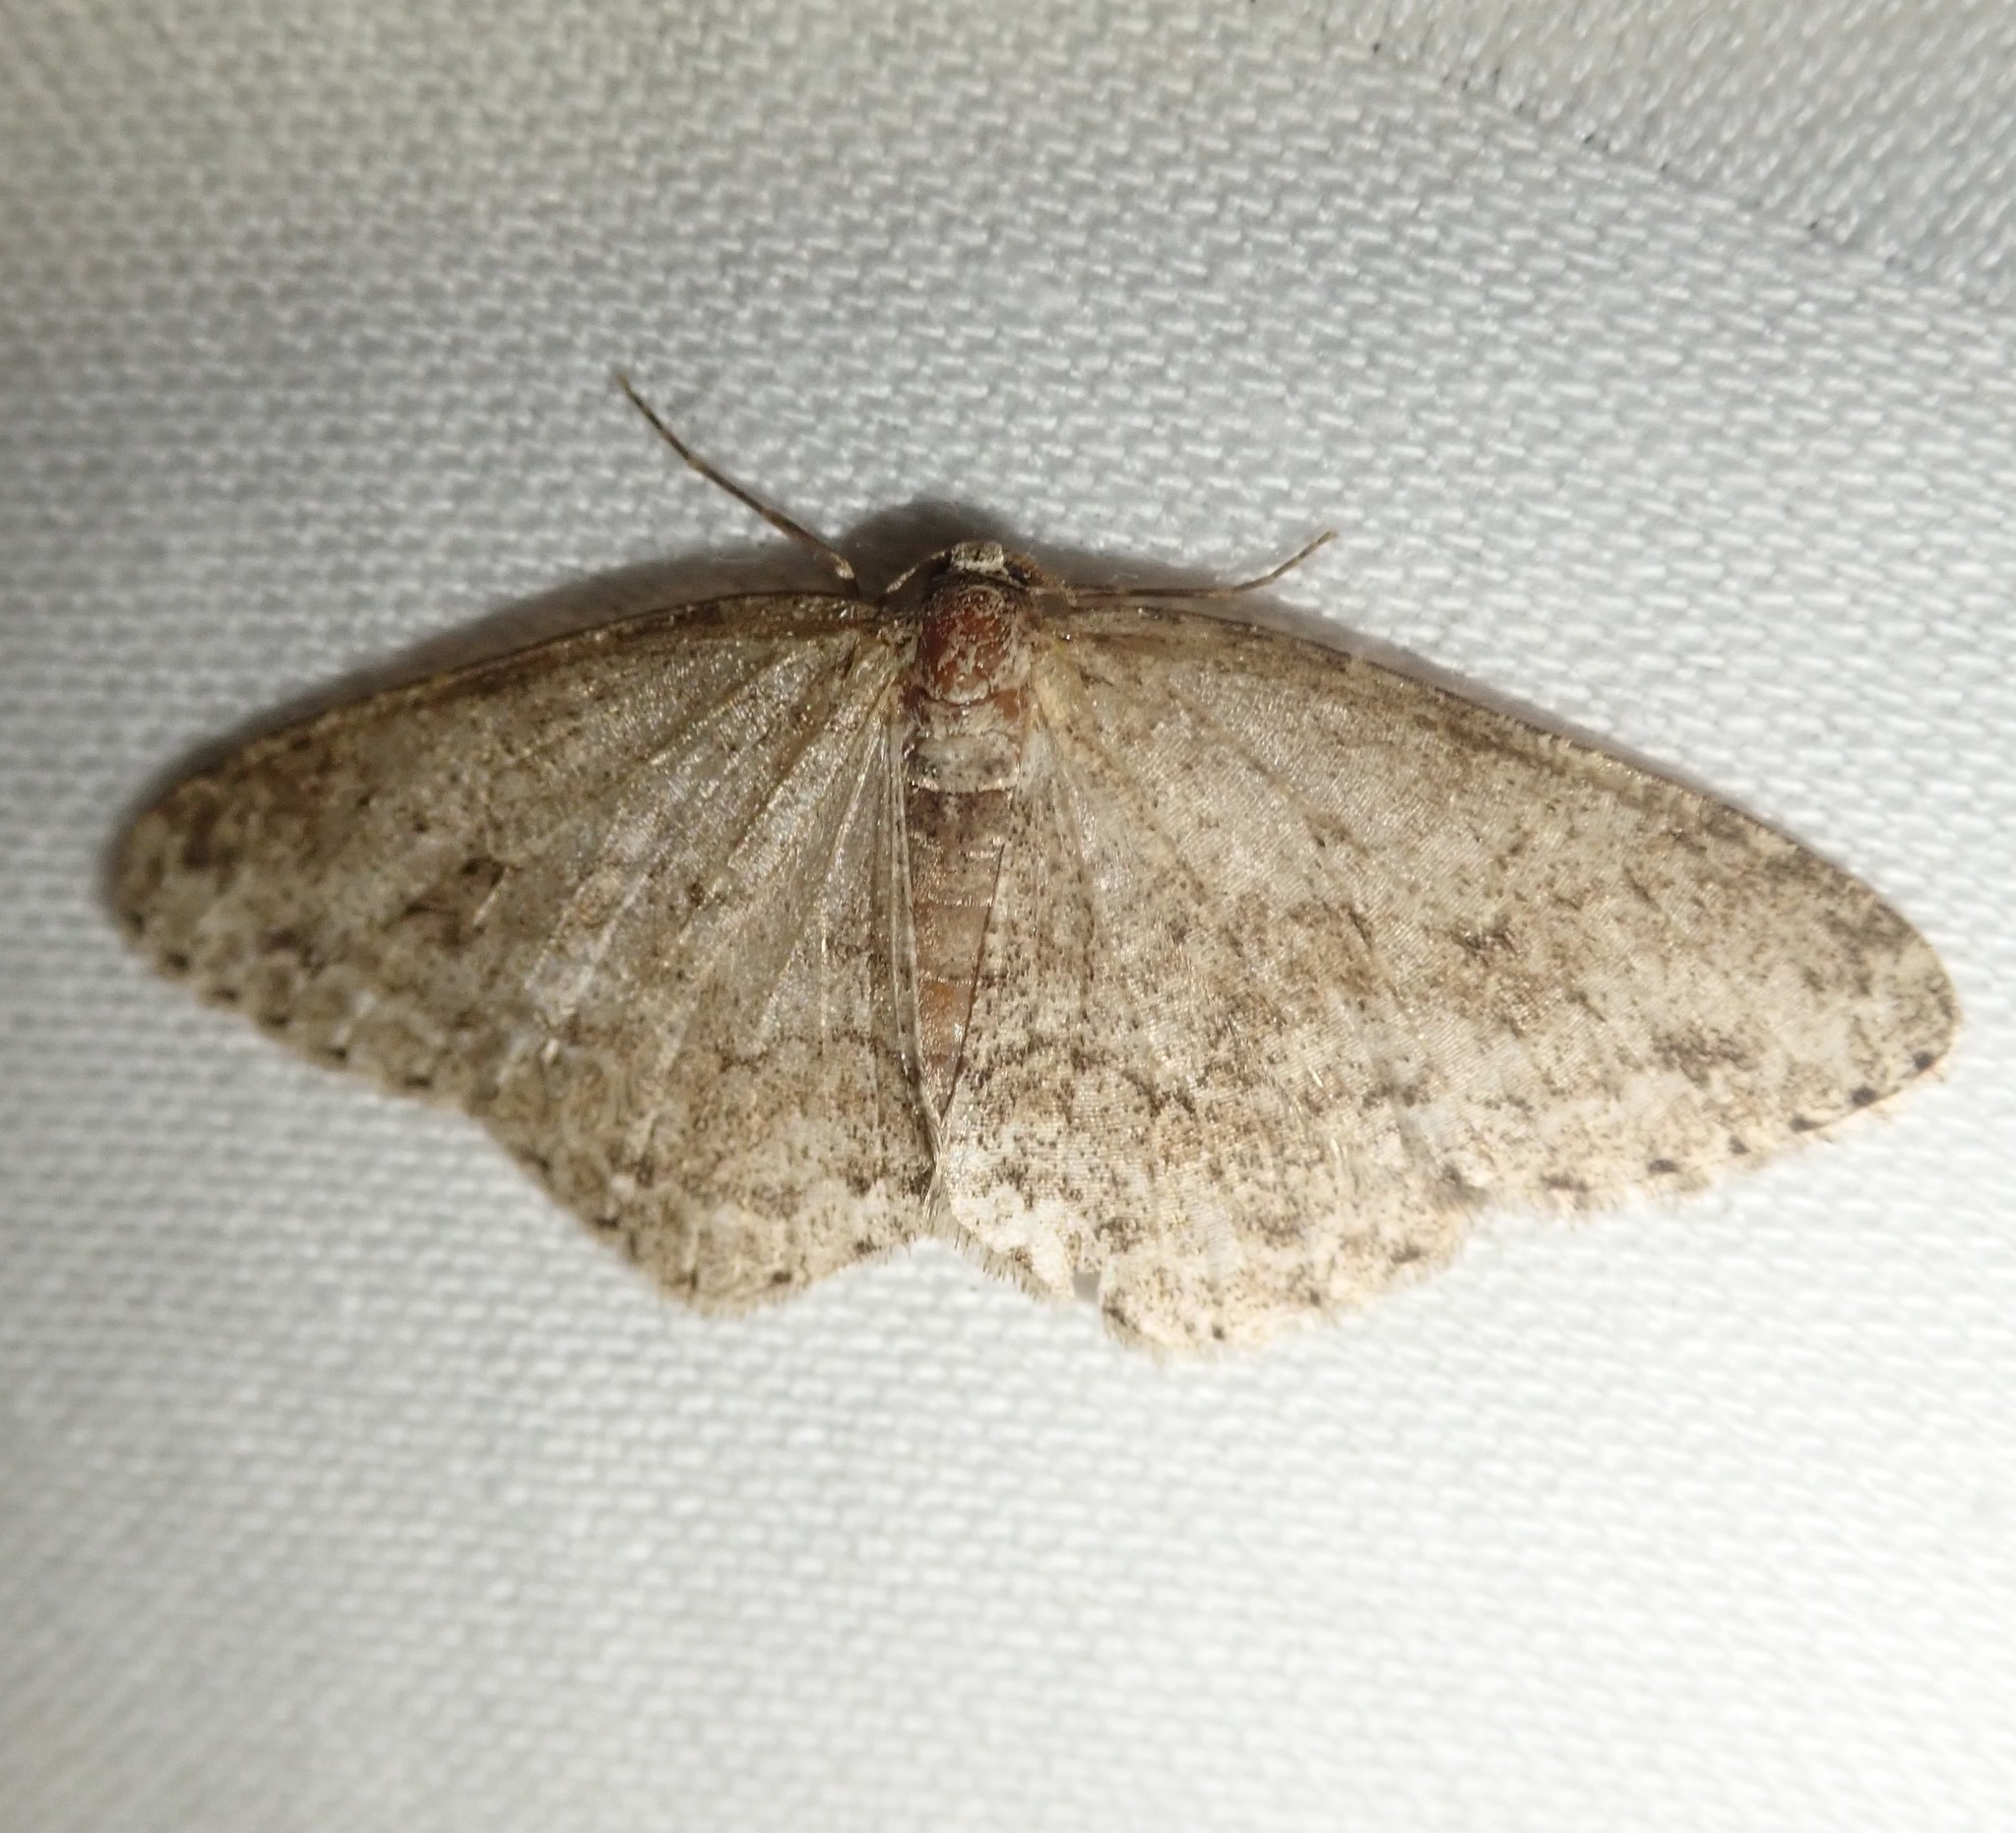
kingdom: Animalia
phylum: Arthropoda
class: Insecta
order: Lepidoptera
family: Geometridae
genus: Ectropis
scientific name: Ectropis crepuscularia
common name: Engrailed
